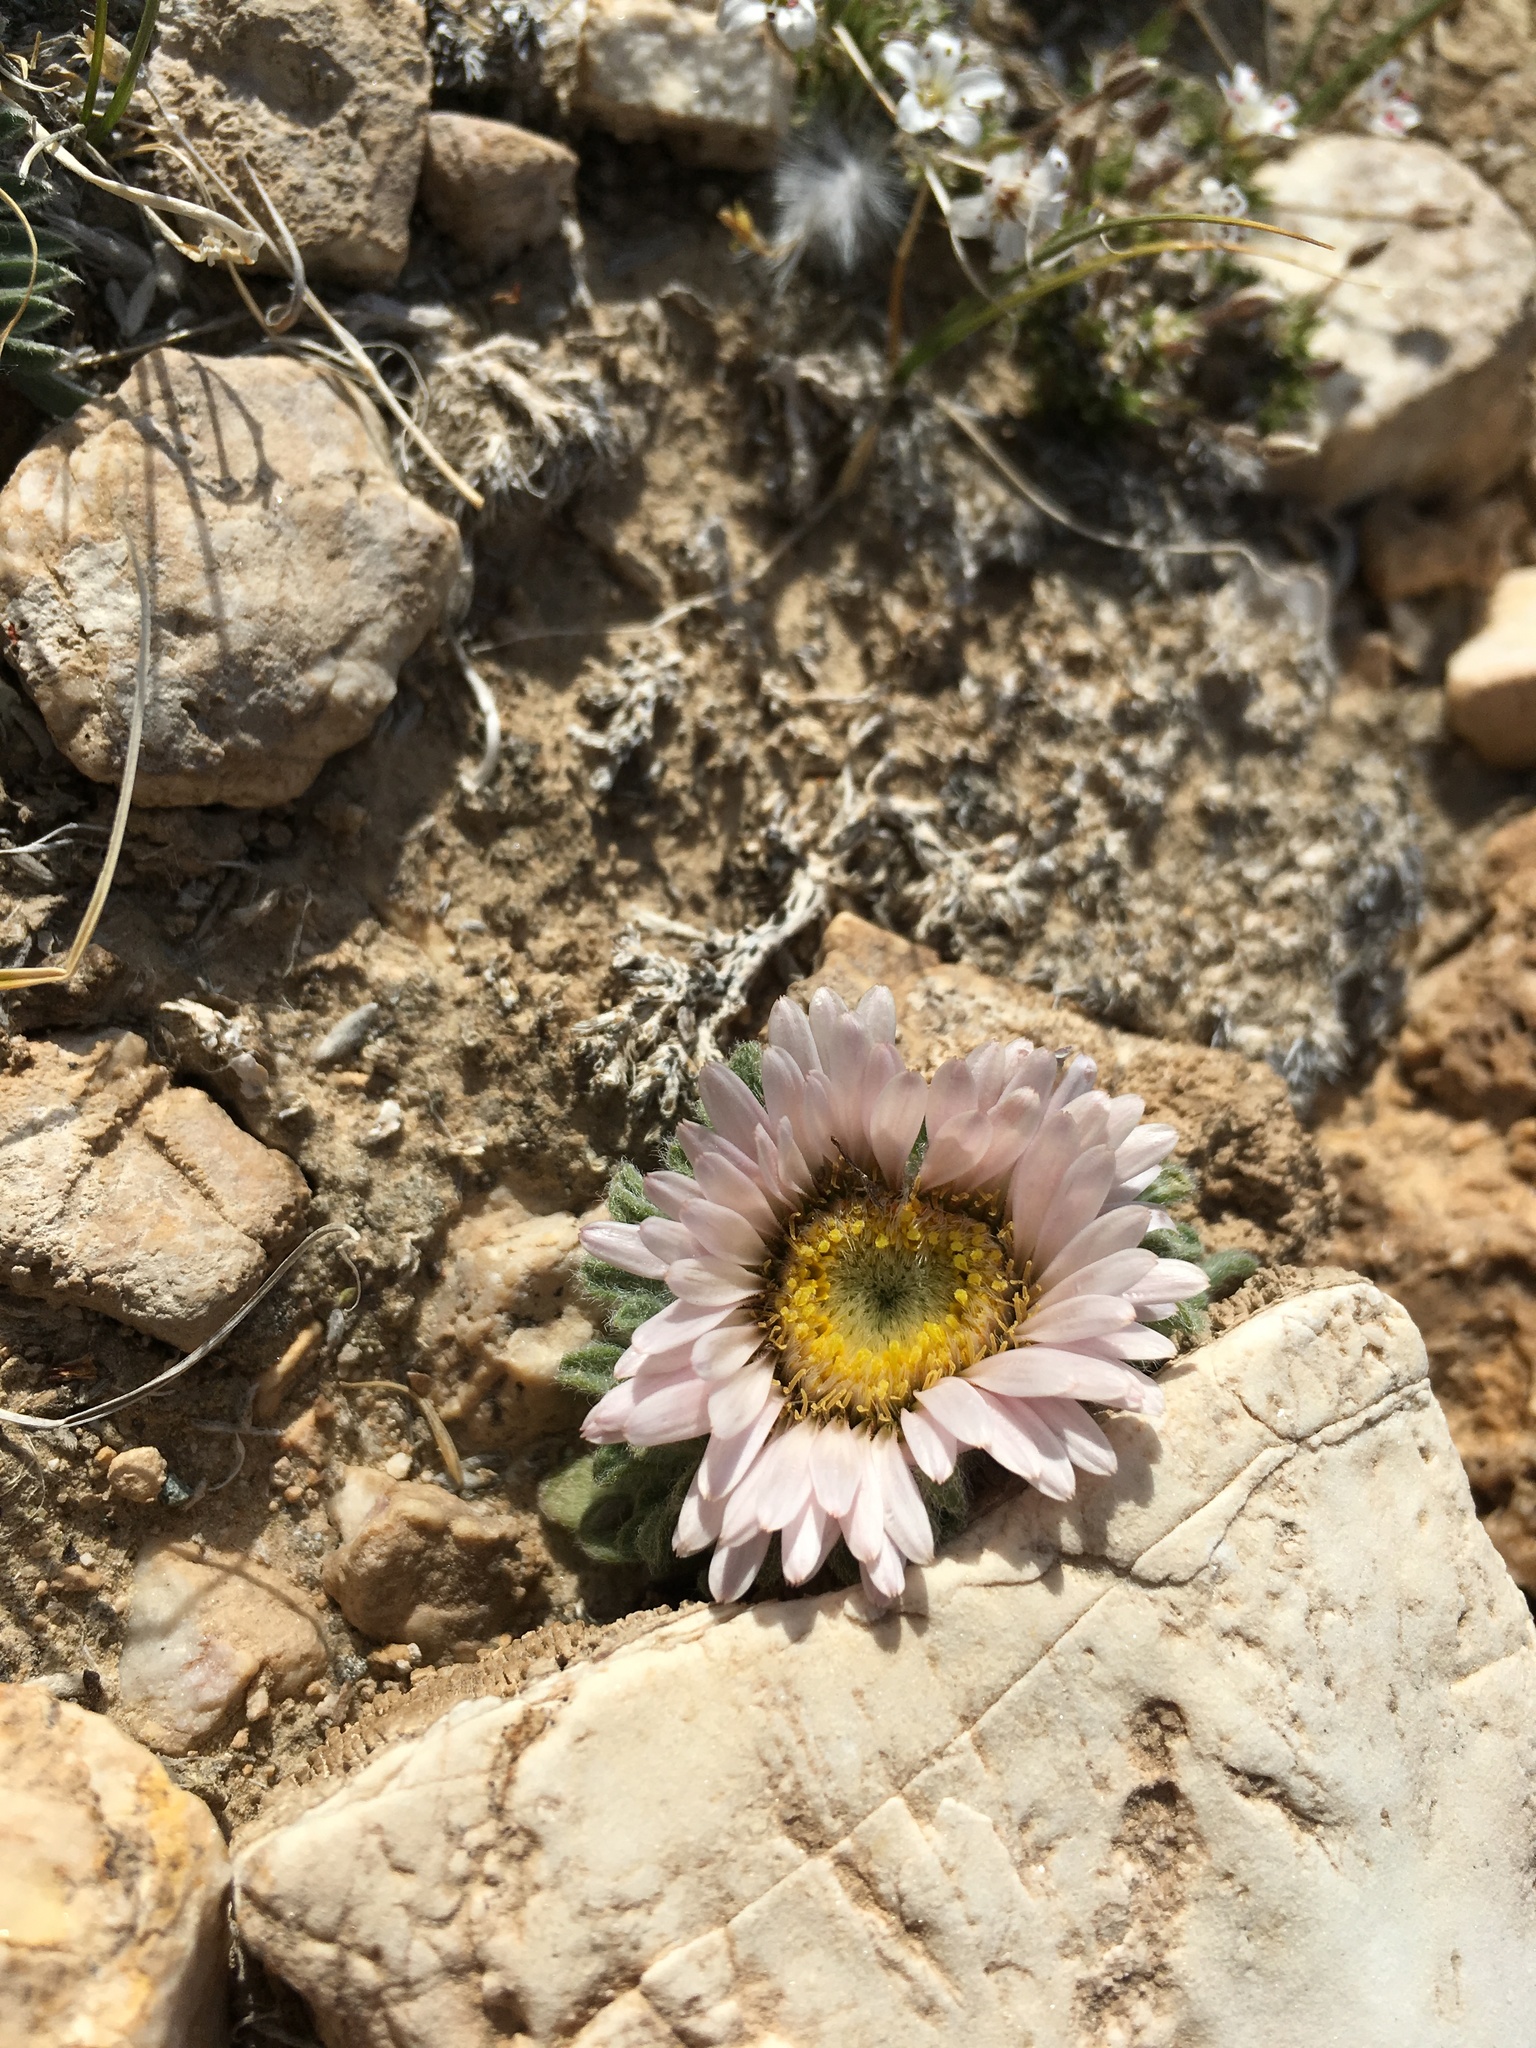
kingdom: Plantae
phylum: Tracheophyta
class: Magnoliopsida
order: Asterales
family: Asteraceae
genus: Townsendia
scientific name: Townsendia condensata
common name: Alpine townsend daisy
